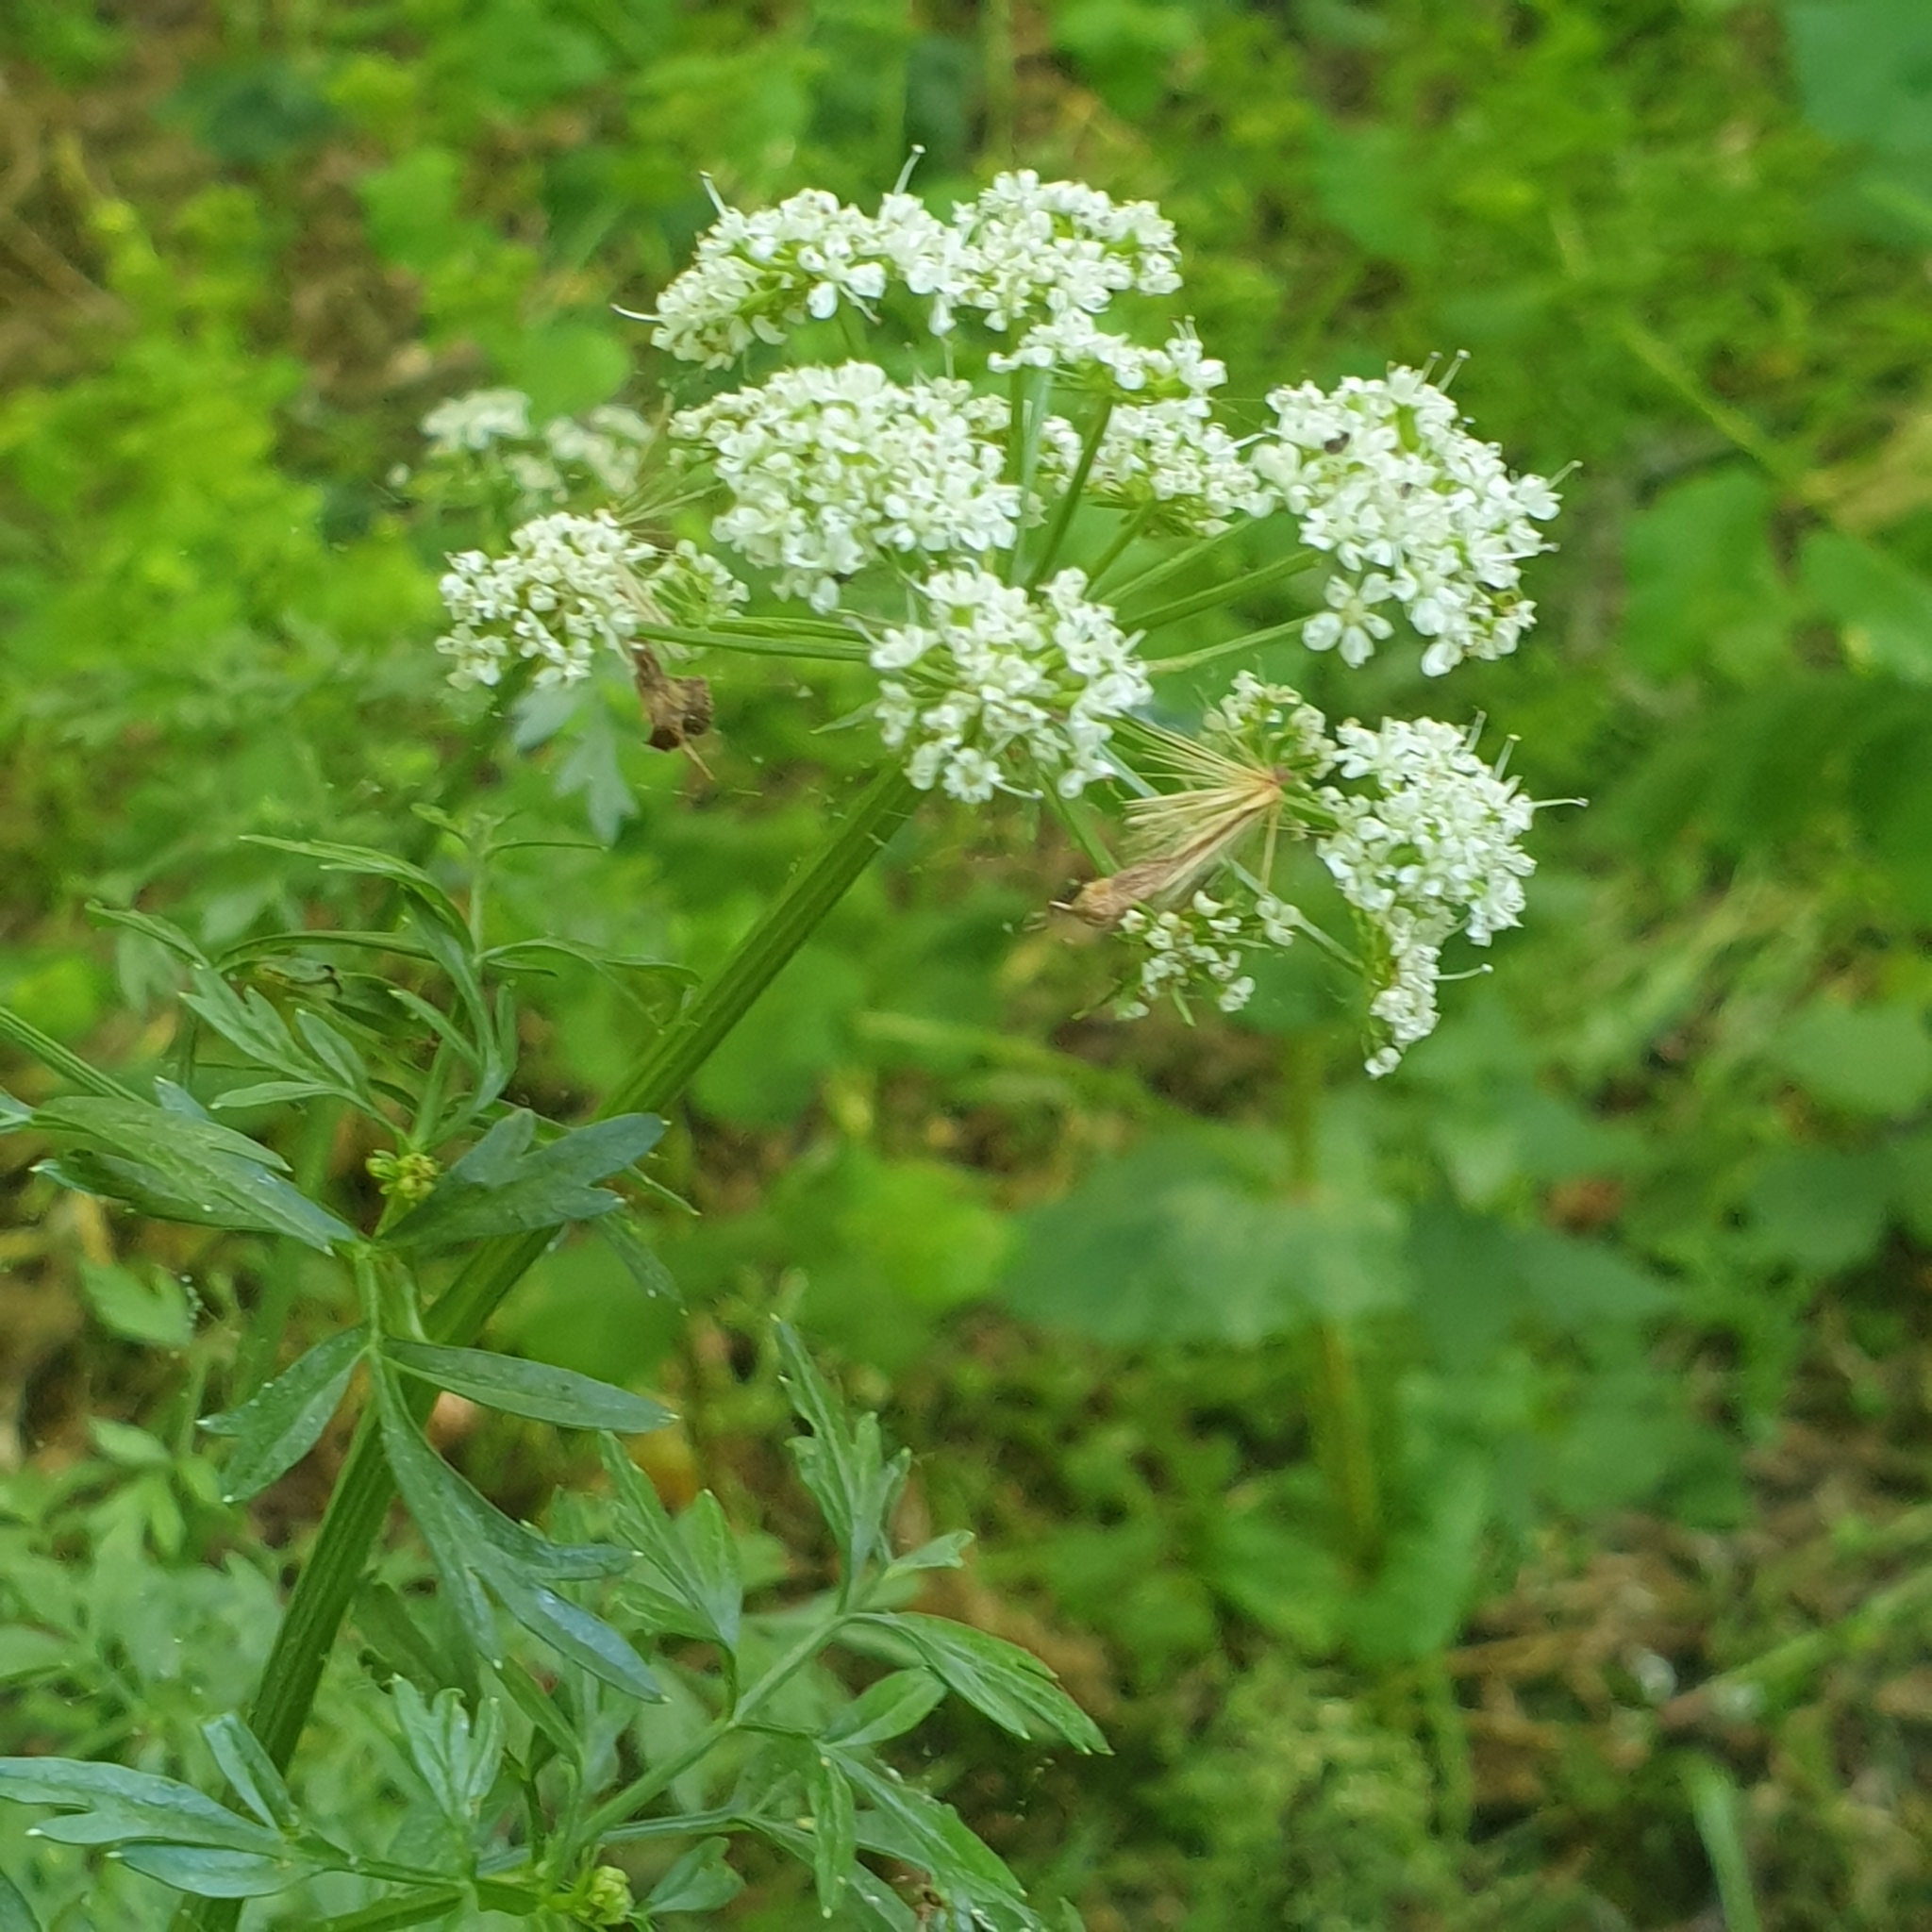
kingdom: Plantae
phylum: Tracheophyta
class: Magnoliopsida
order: Apiales
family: Apiaceae
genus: Oenanthe
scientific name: Oenanthe crocata
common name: Hemlock water-dropwort
